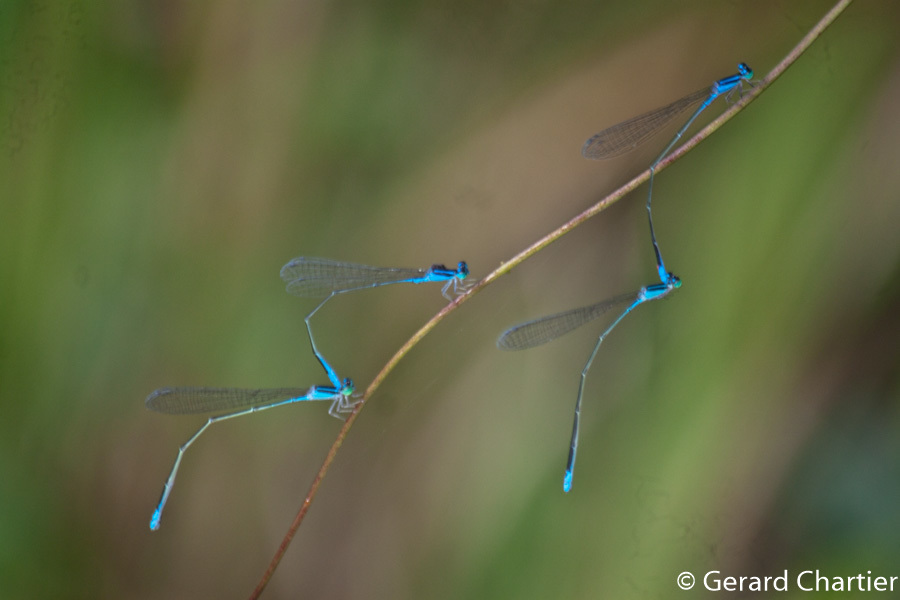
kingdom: Animalia
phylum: Arthropoda
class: Insecta
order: Odonata
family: Coenagrionidae
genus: Aciagrion
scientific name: Aciagrion hisopa
